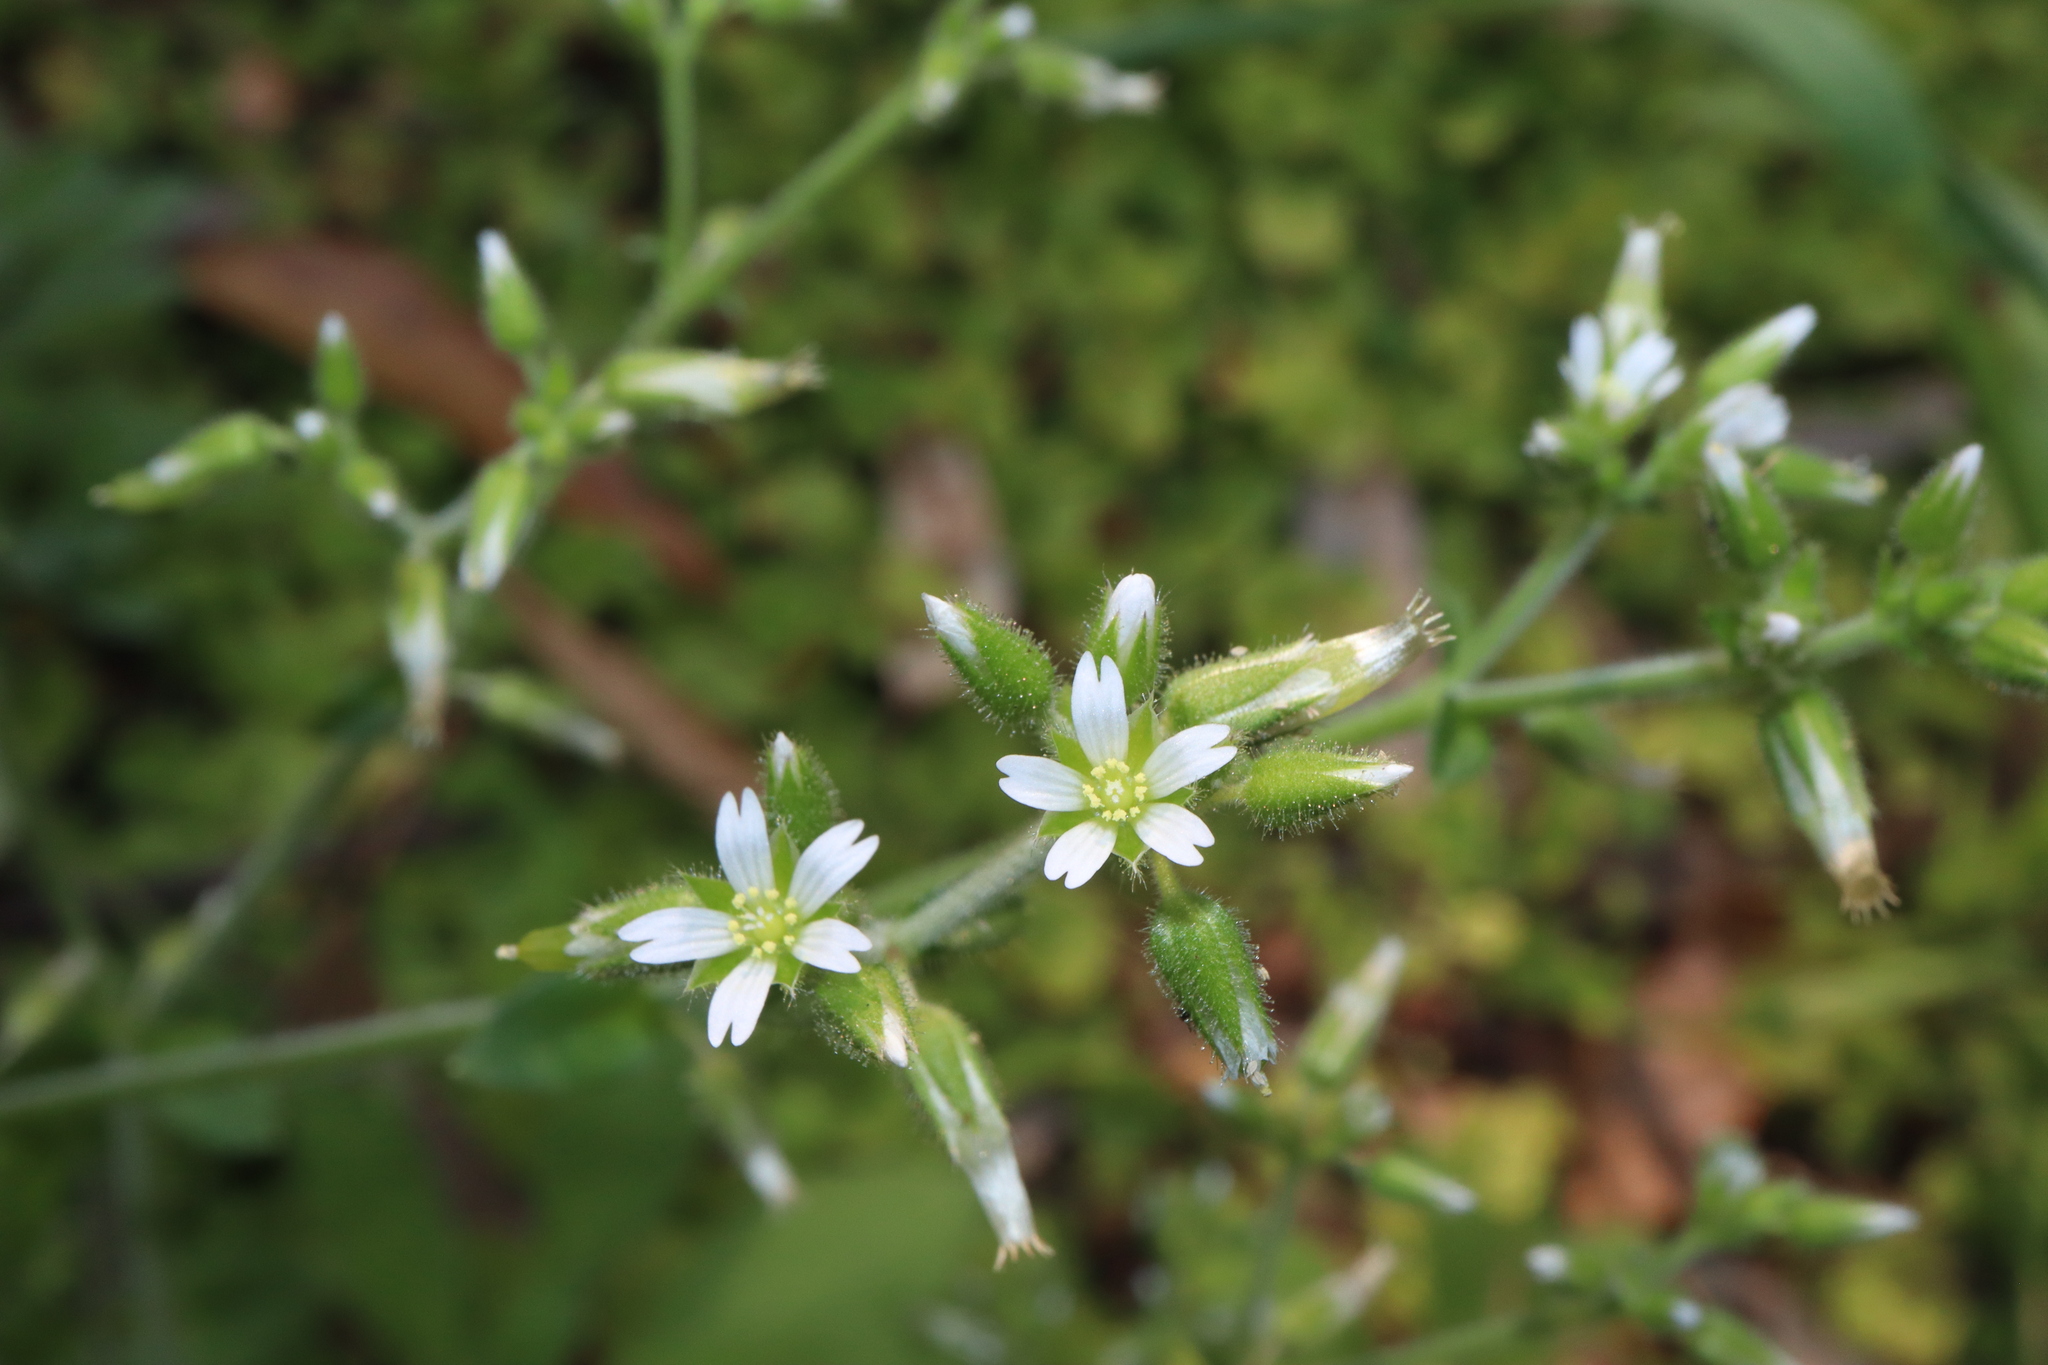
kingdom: Plantae
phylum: Tracheophyta
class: Magnoliopsida
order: Caryophyllales
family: Caryophyllaceae
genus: Cerastium
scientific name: Cerastium glomeratum
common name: Sticky chickweed
